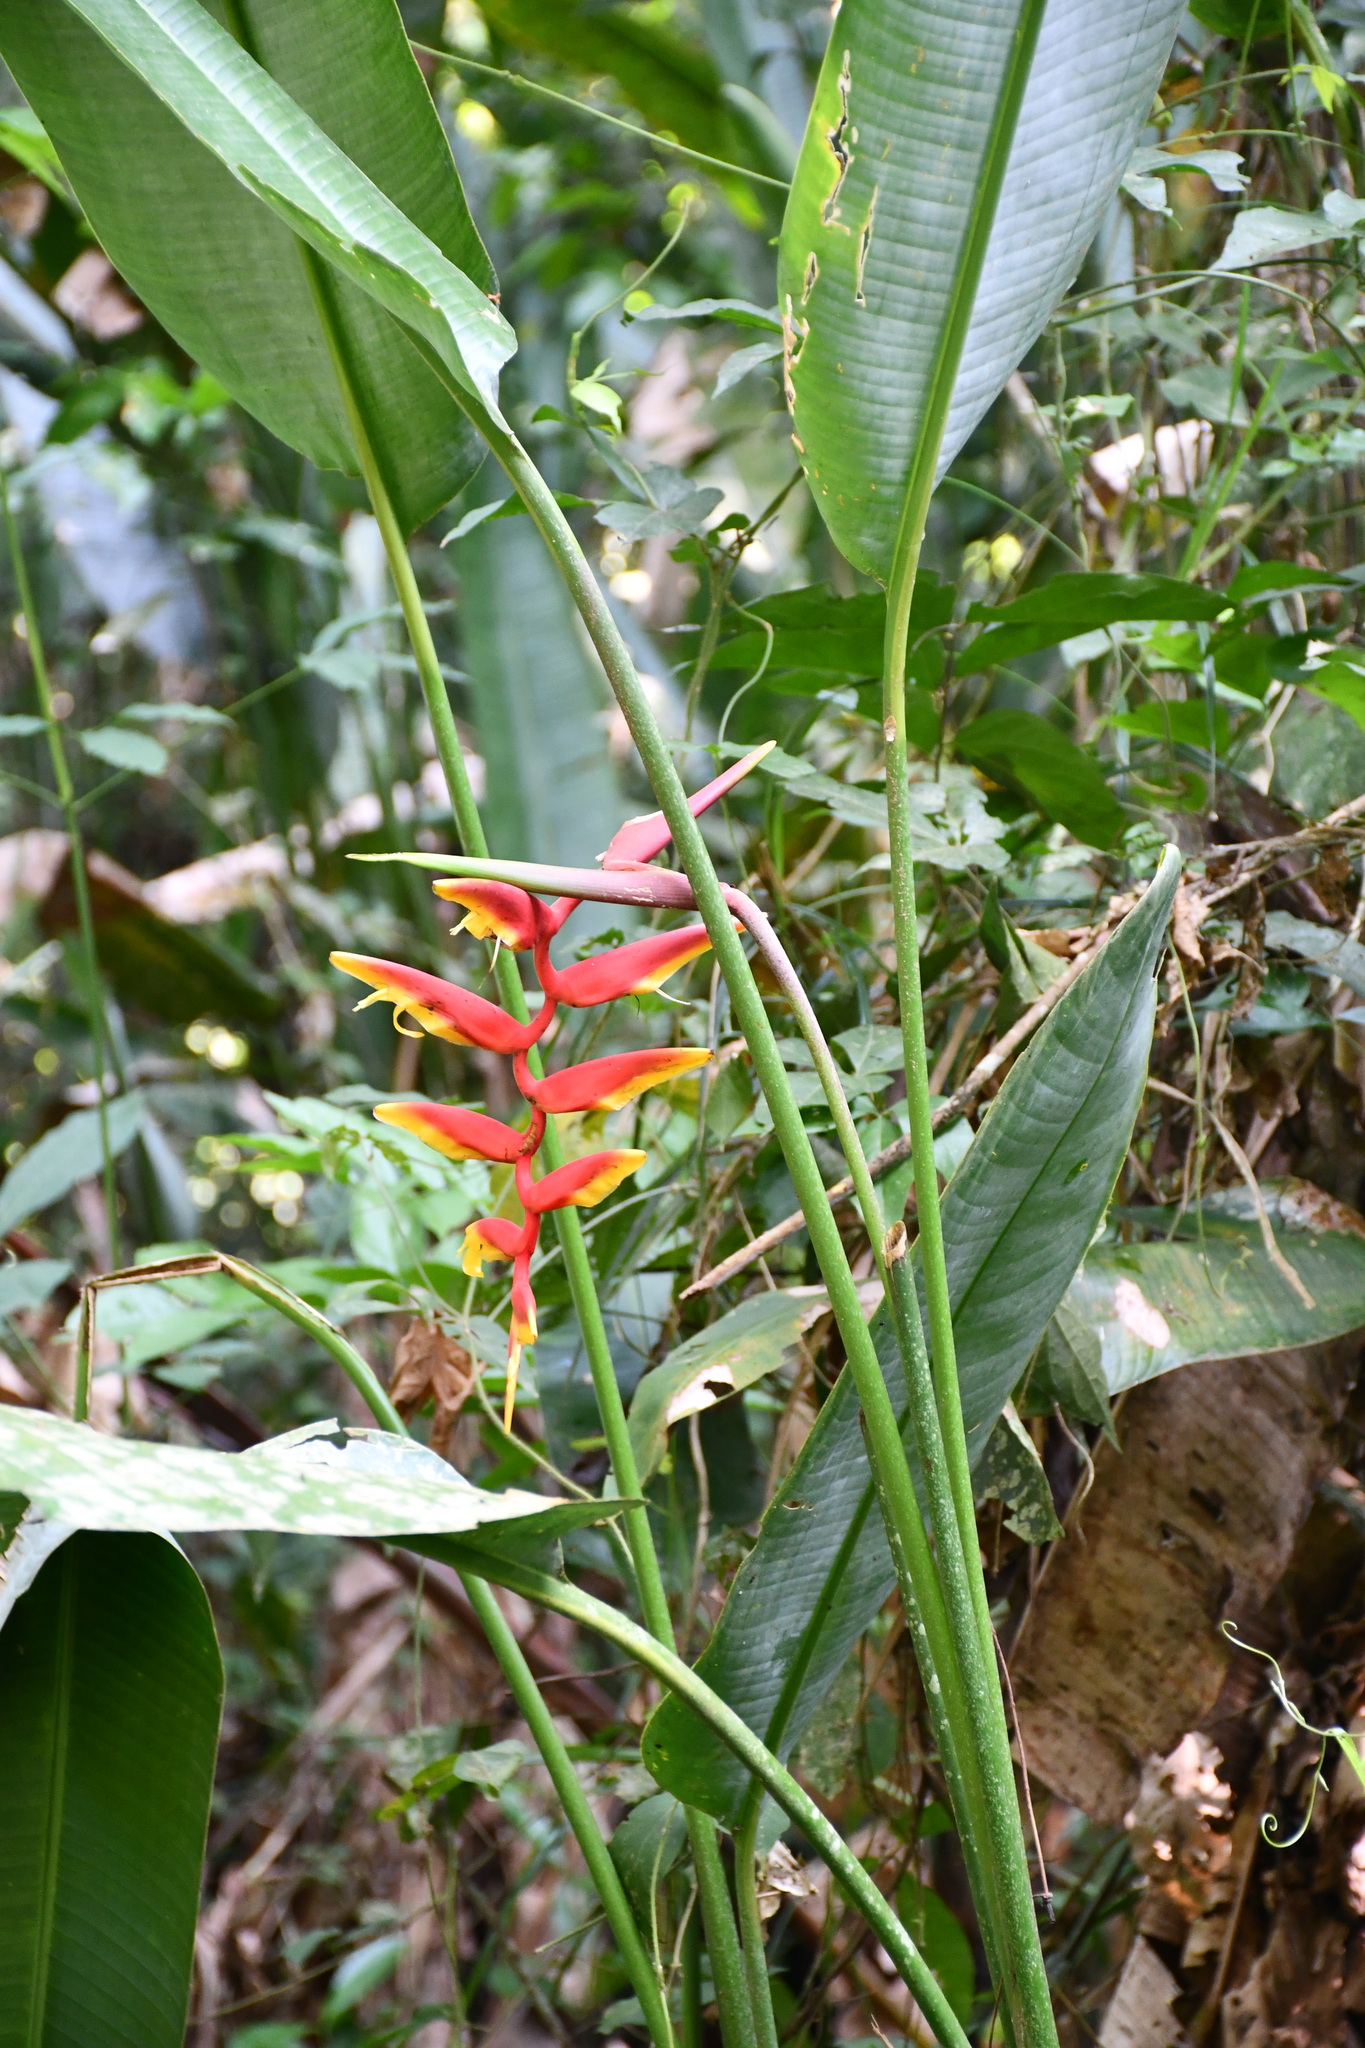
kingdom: Plantae
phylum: Tracheophyta
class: Liliopsida
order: Zingiberales
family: Heliconiaceae
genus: Heliconia
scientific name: Heliconia marginata
